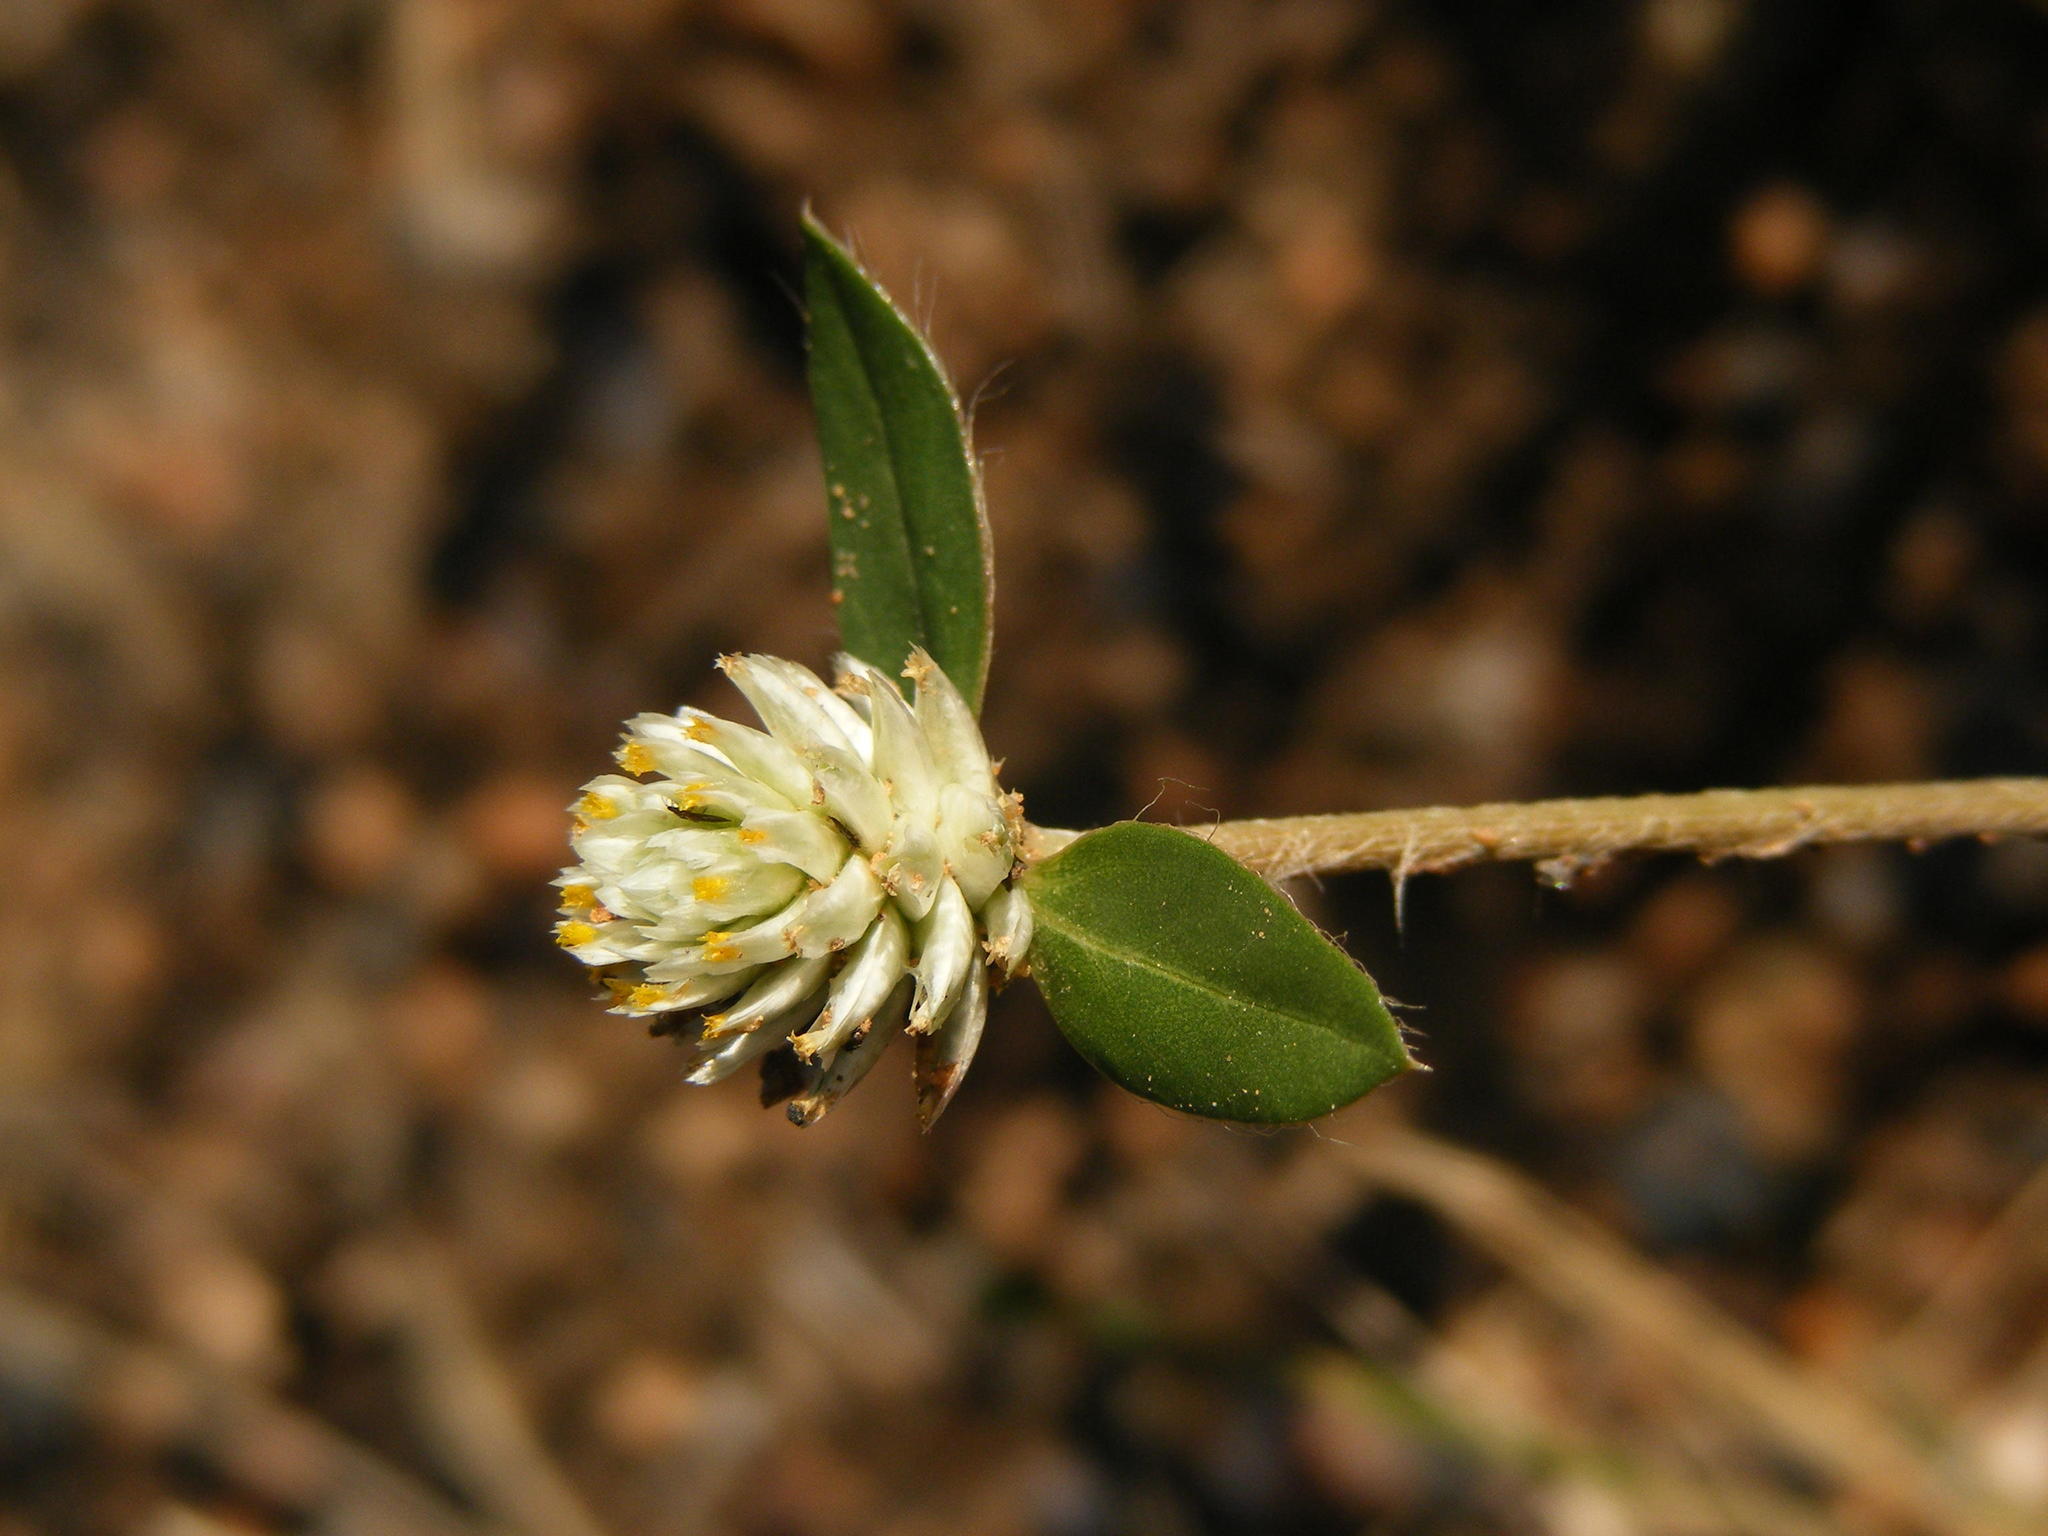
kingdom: Plantae
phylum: Tracheophyta
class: Magnoliopsida
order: Caryophyllales
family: Amaranthaceae
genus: Gomphrena
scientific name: Gomphrena celosioides
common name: Gomphrena-weed
